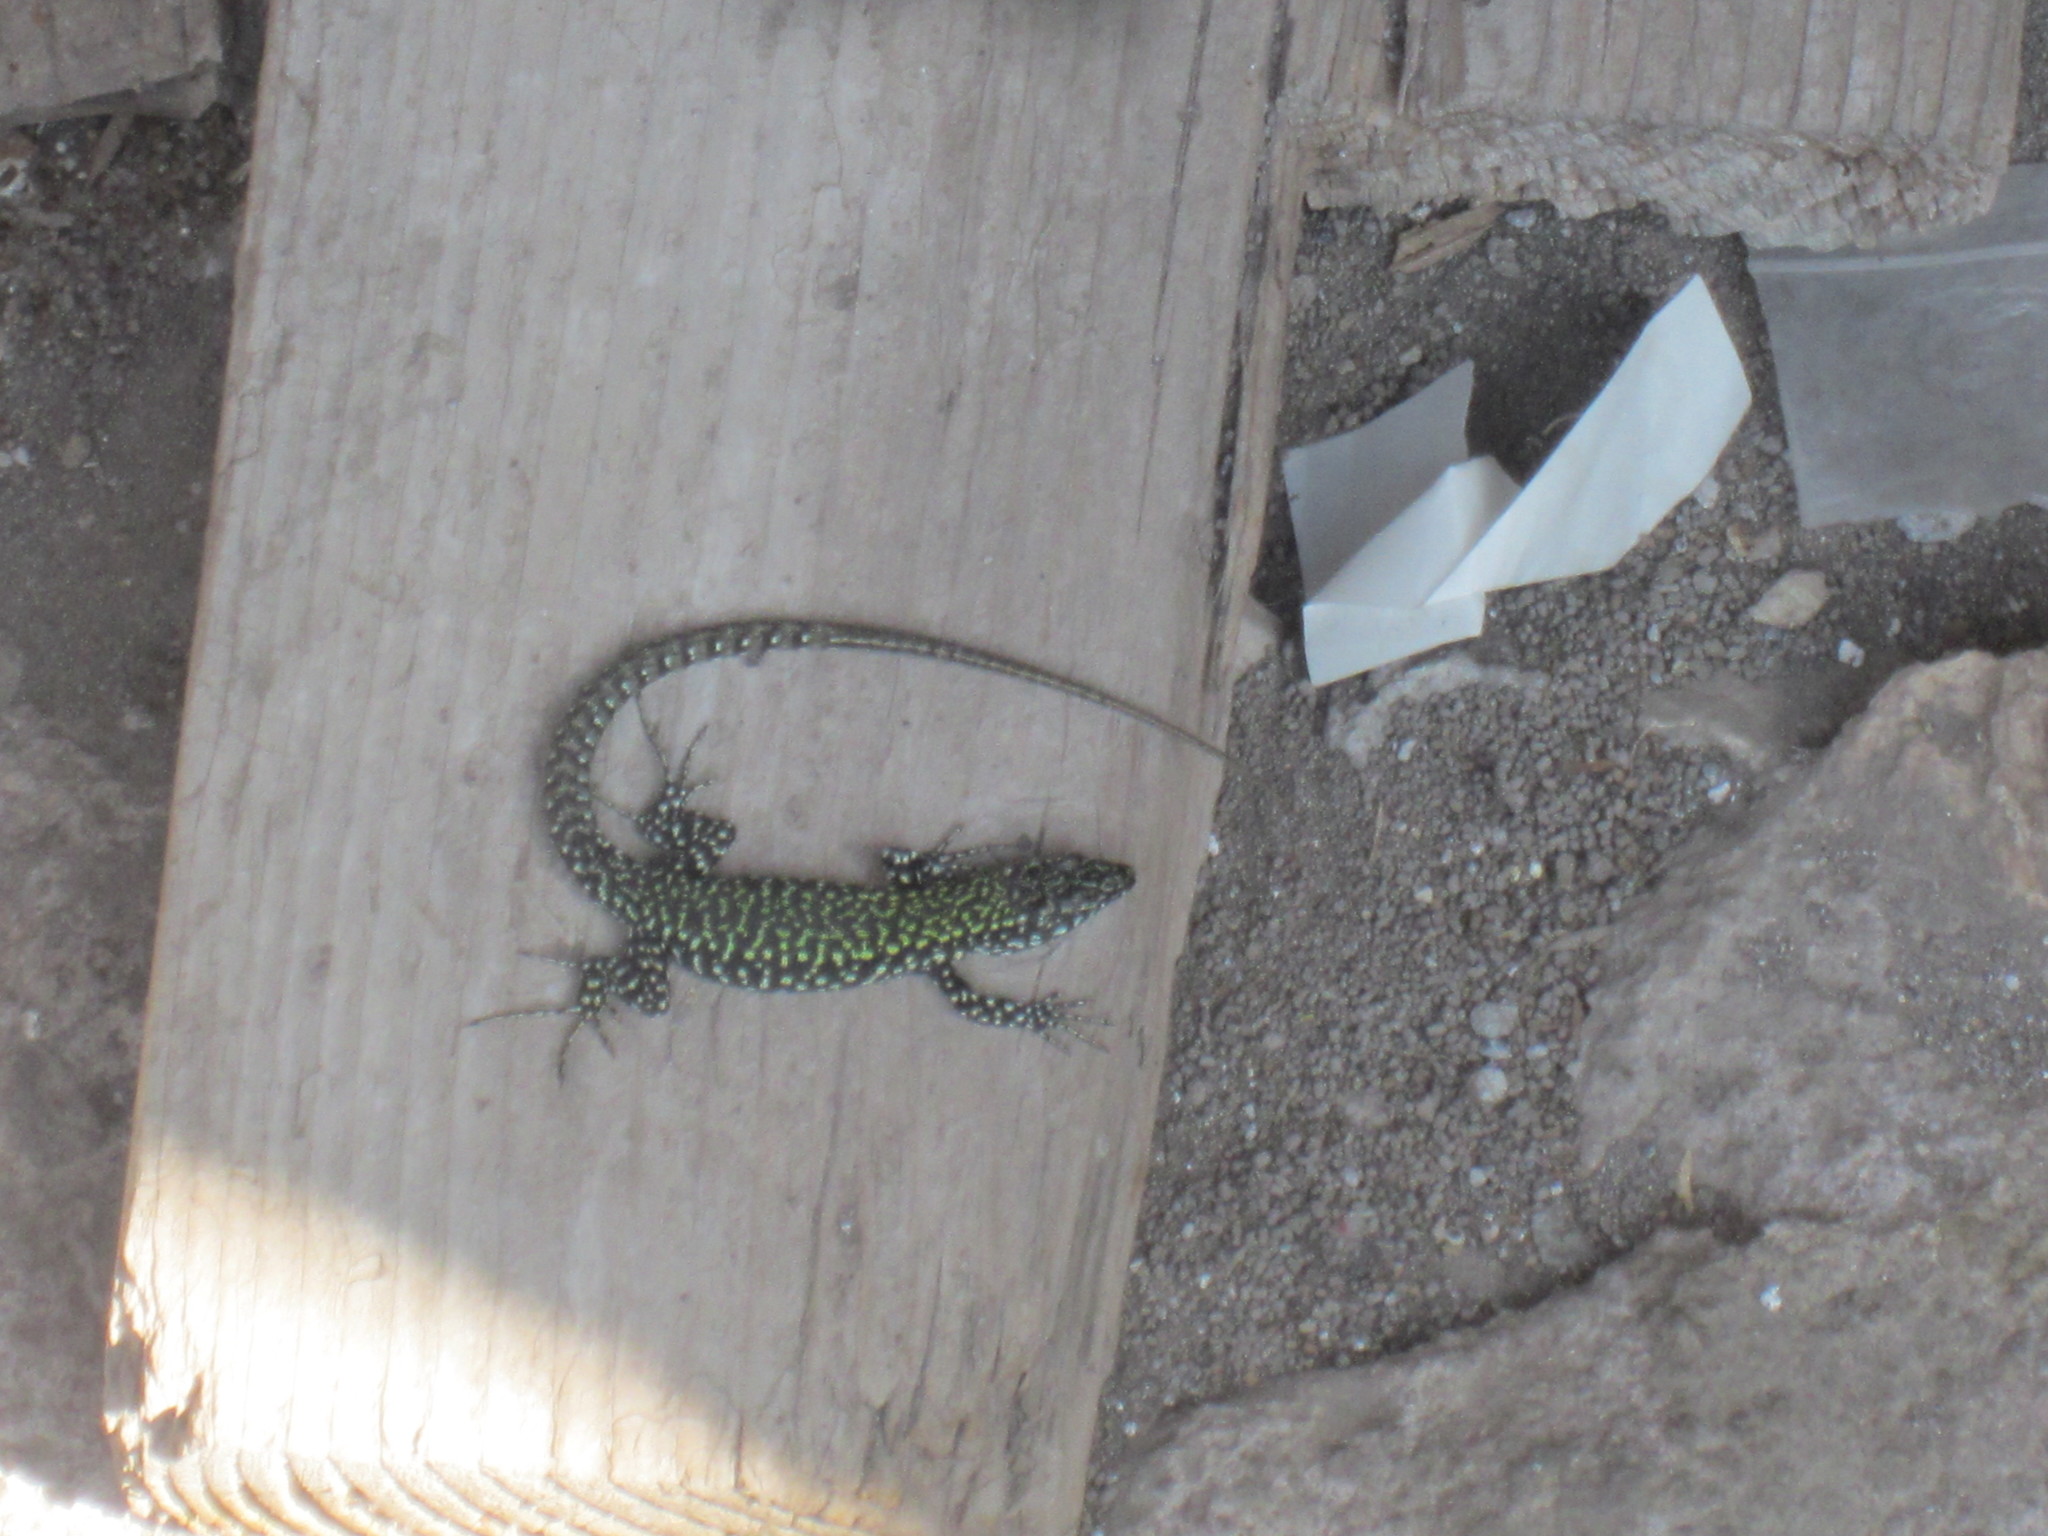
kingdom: Animalia
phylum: Chordata
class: Squamata
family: Lacertidae
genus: Podarcis
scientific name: Podarcis muralis
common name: Common wall lizard
